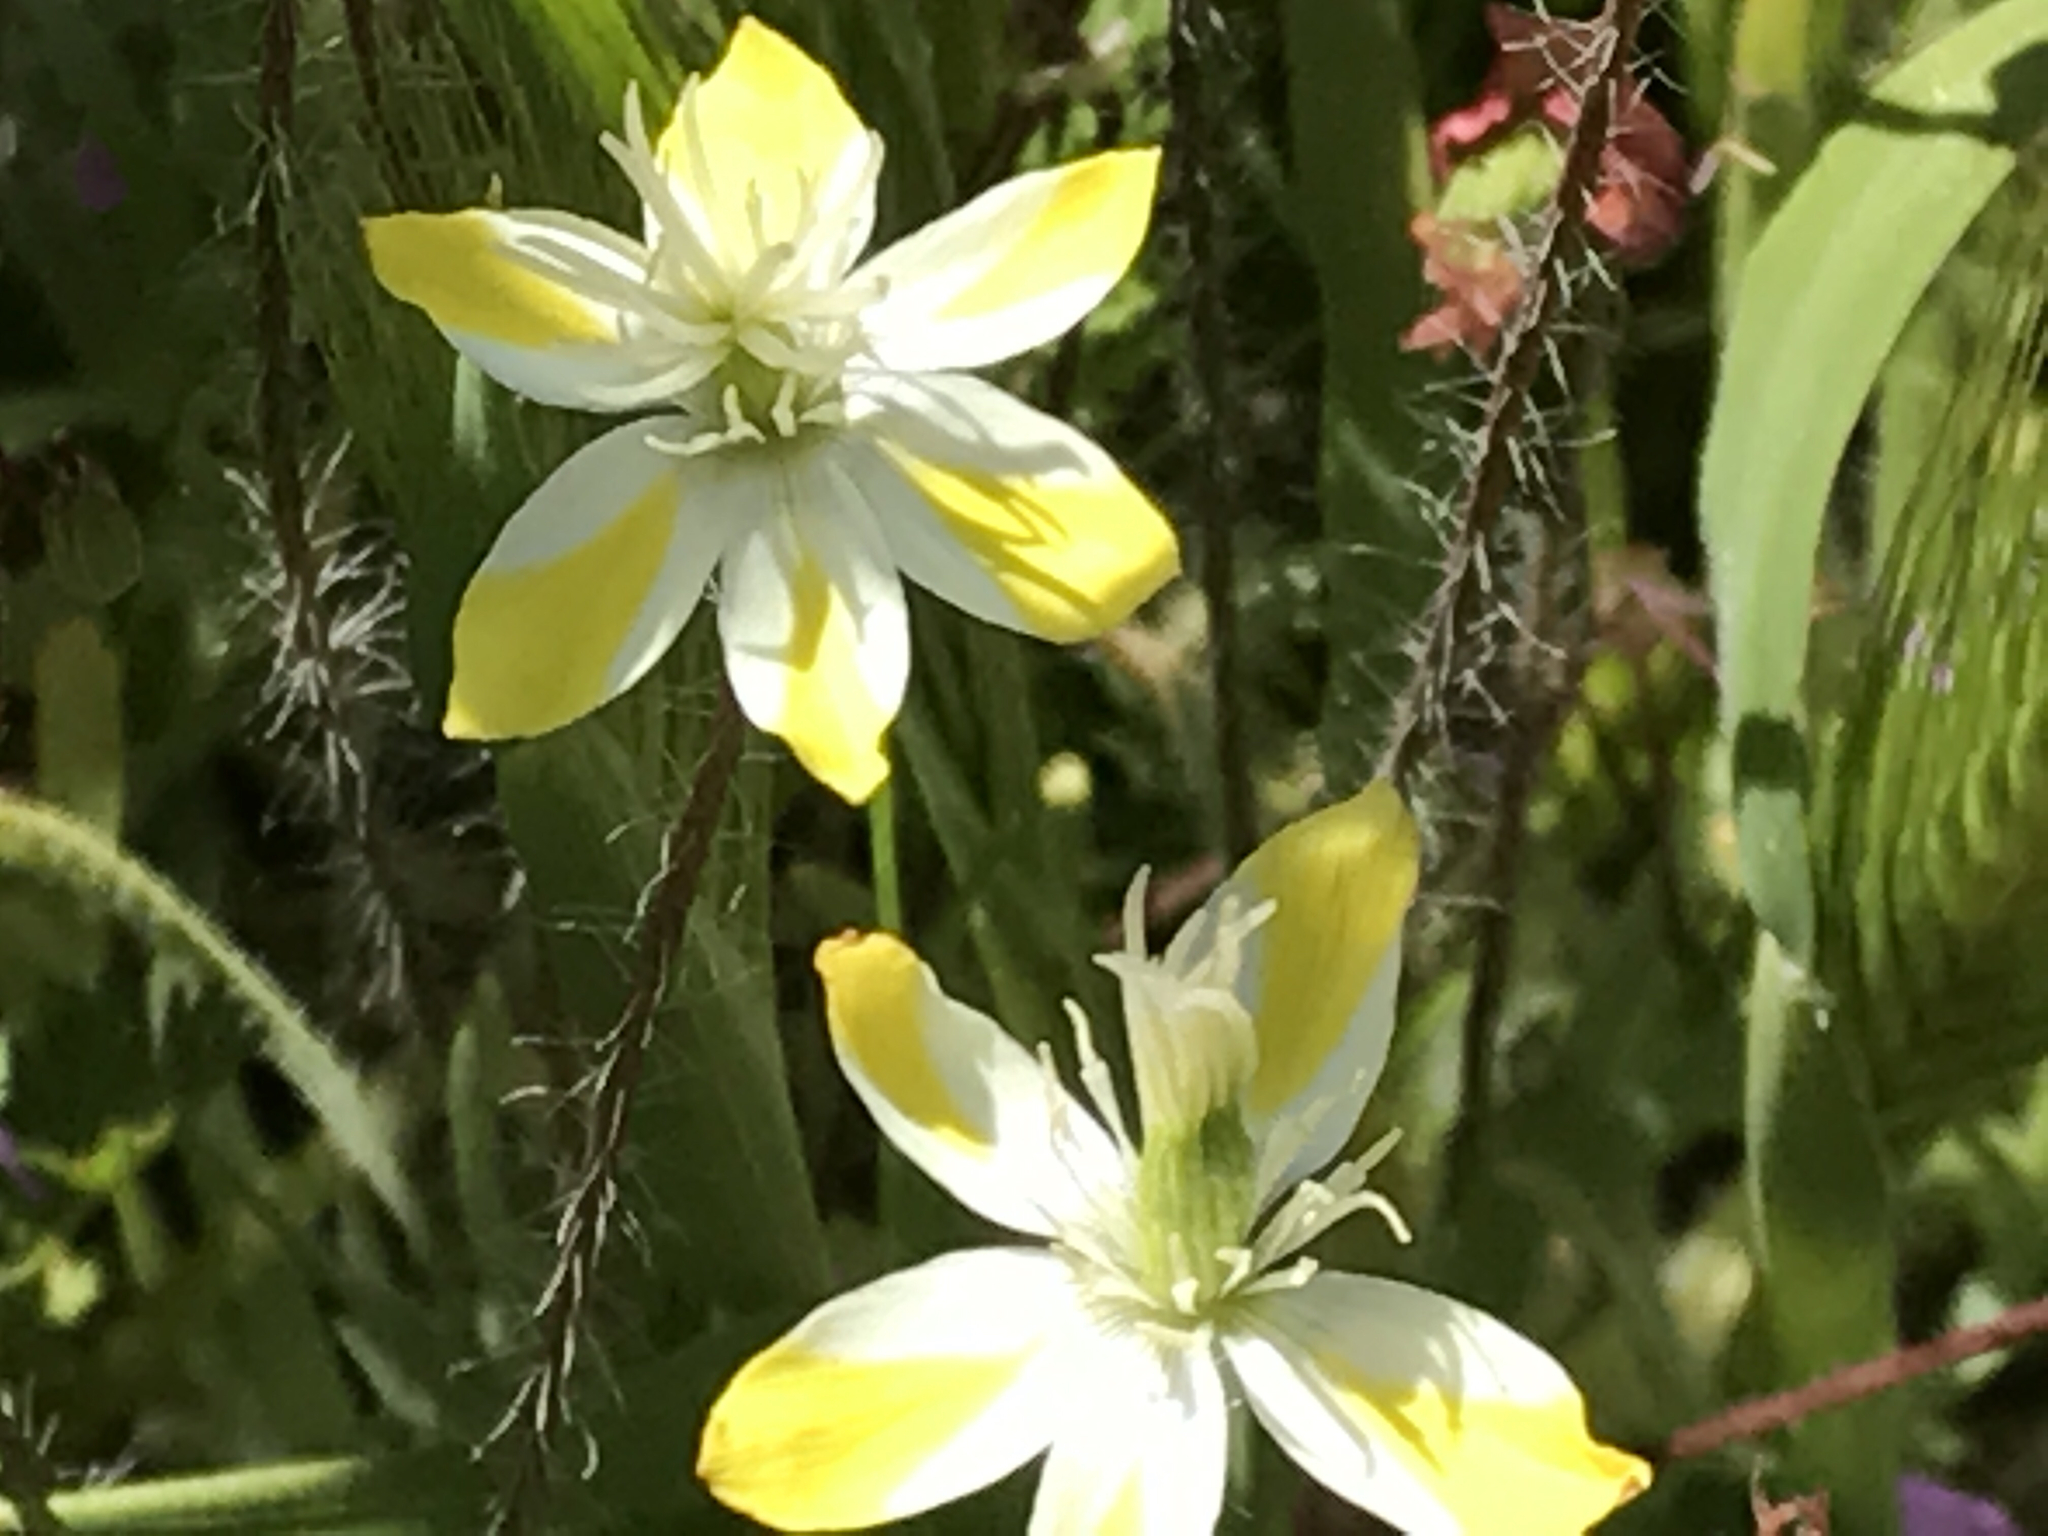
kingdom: Plantae
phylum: Tracheophyta
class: Magnoliopsida
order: Ranunculales
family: Papaveraceae
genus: Platystemon
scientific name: Platystemon californicus
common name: Cream-cups
